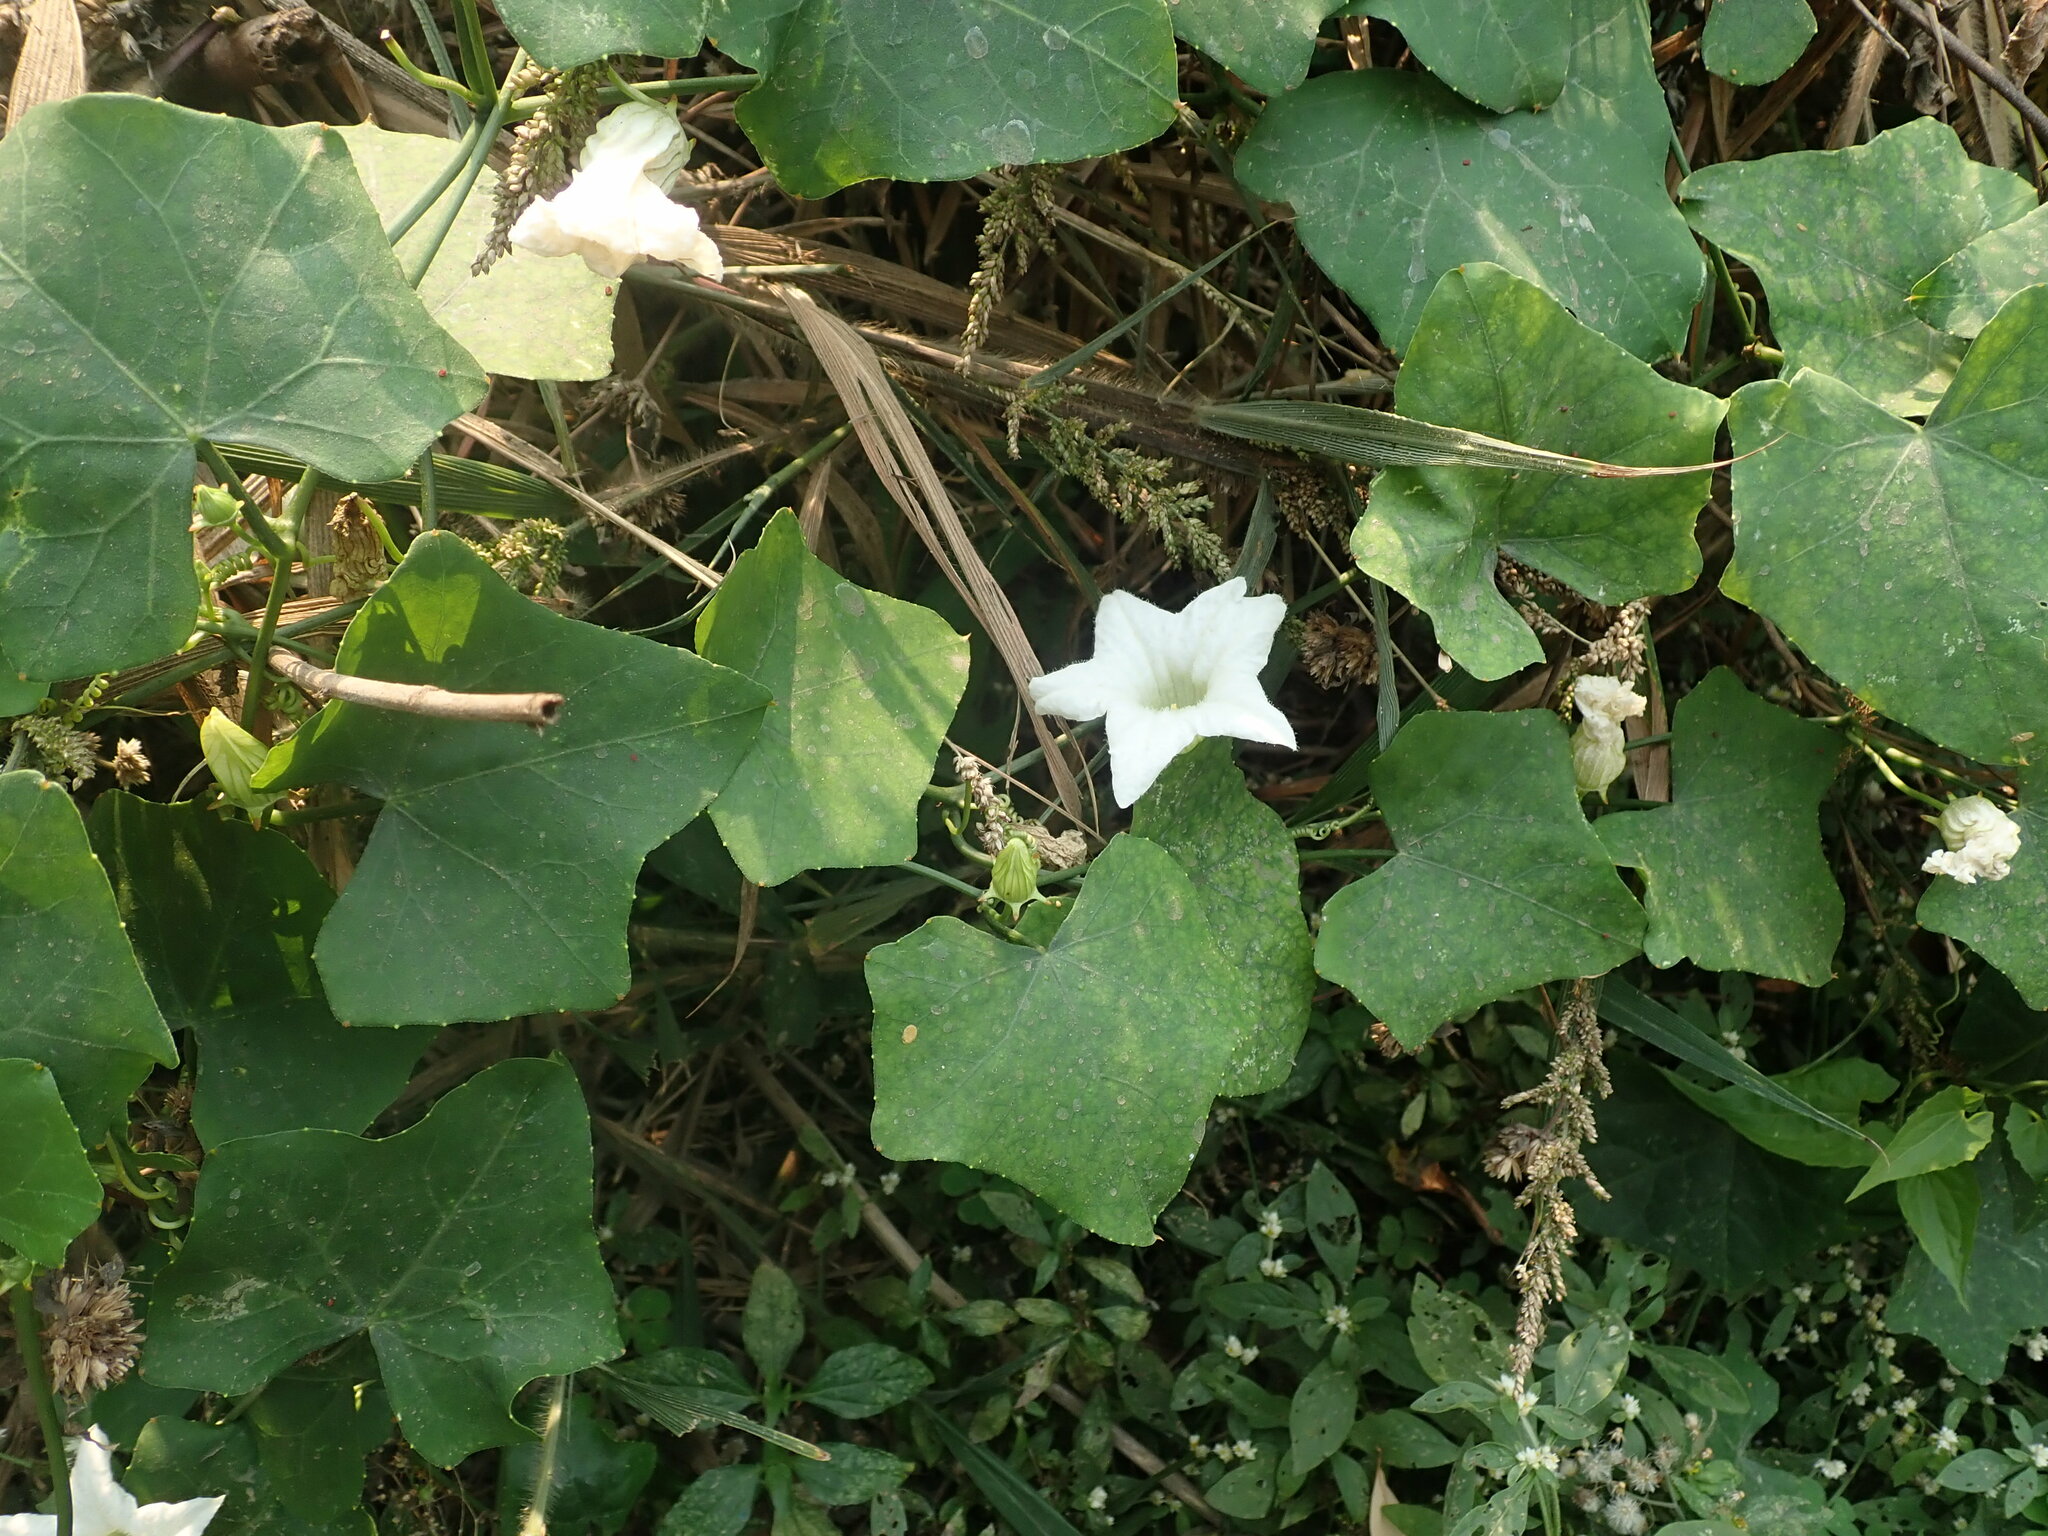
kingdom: Plantae
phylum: Tracheophyta
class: Magnoliopsida
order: Cucurbitales
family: Cucurbitaceae
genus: Coccinia
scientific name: Coccinia grandis
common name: Ivy gourd
